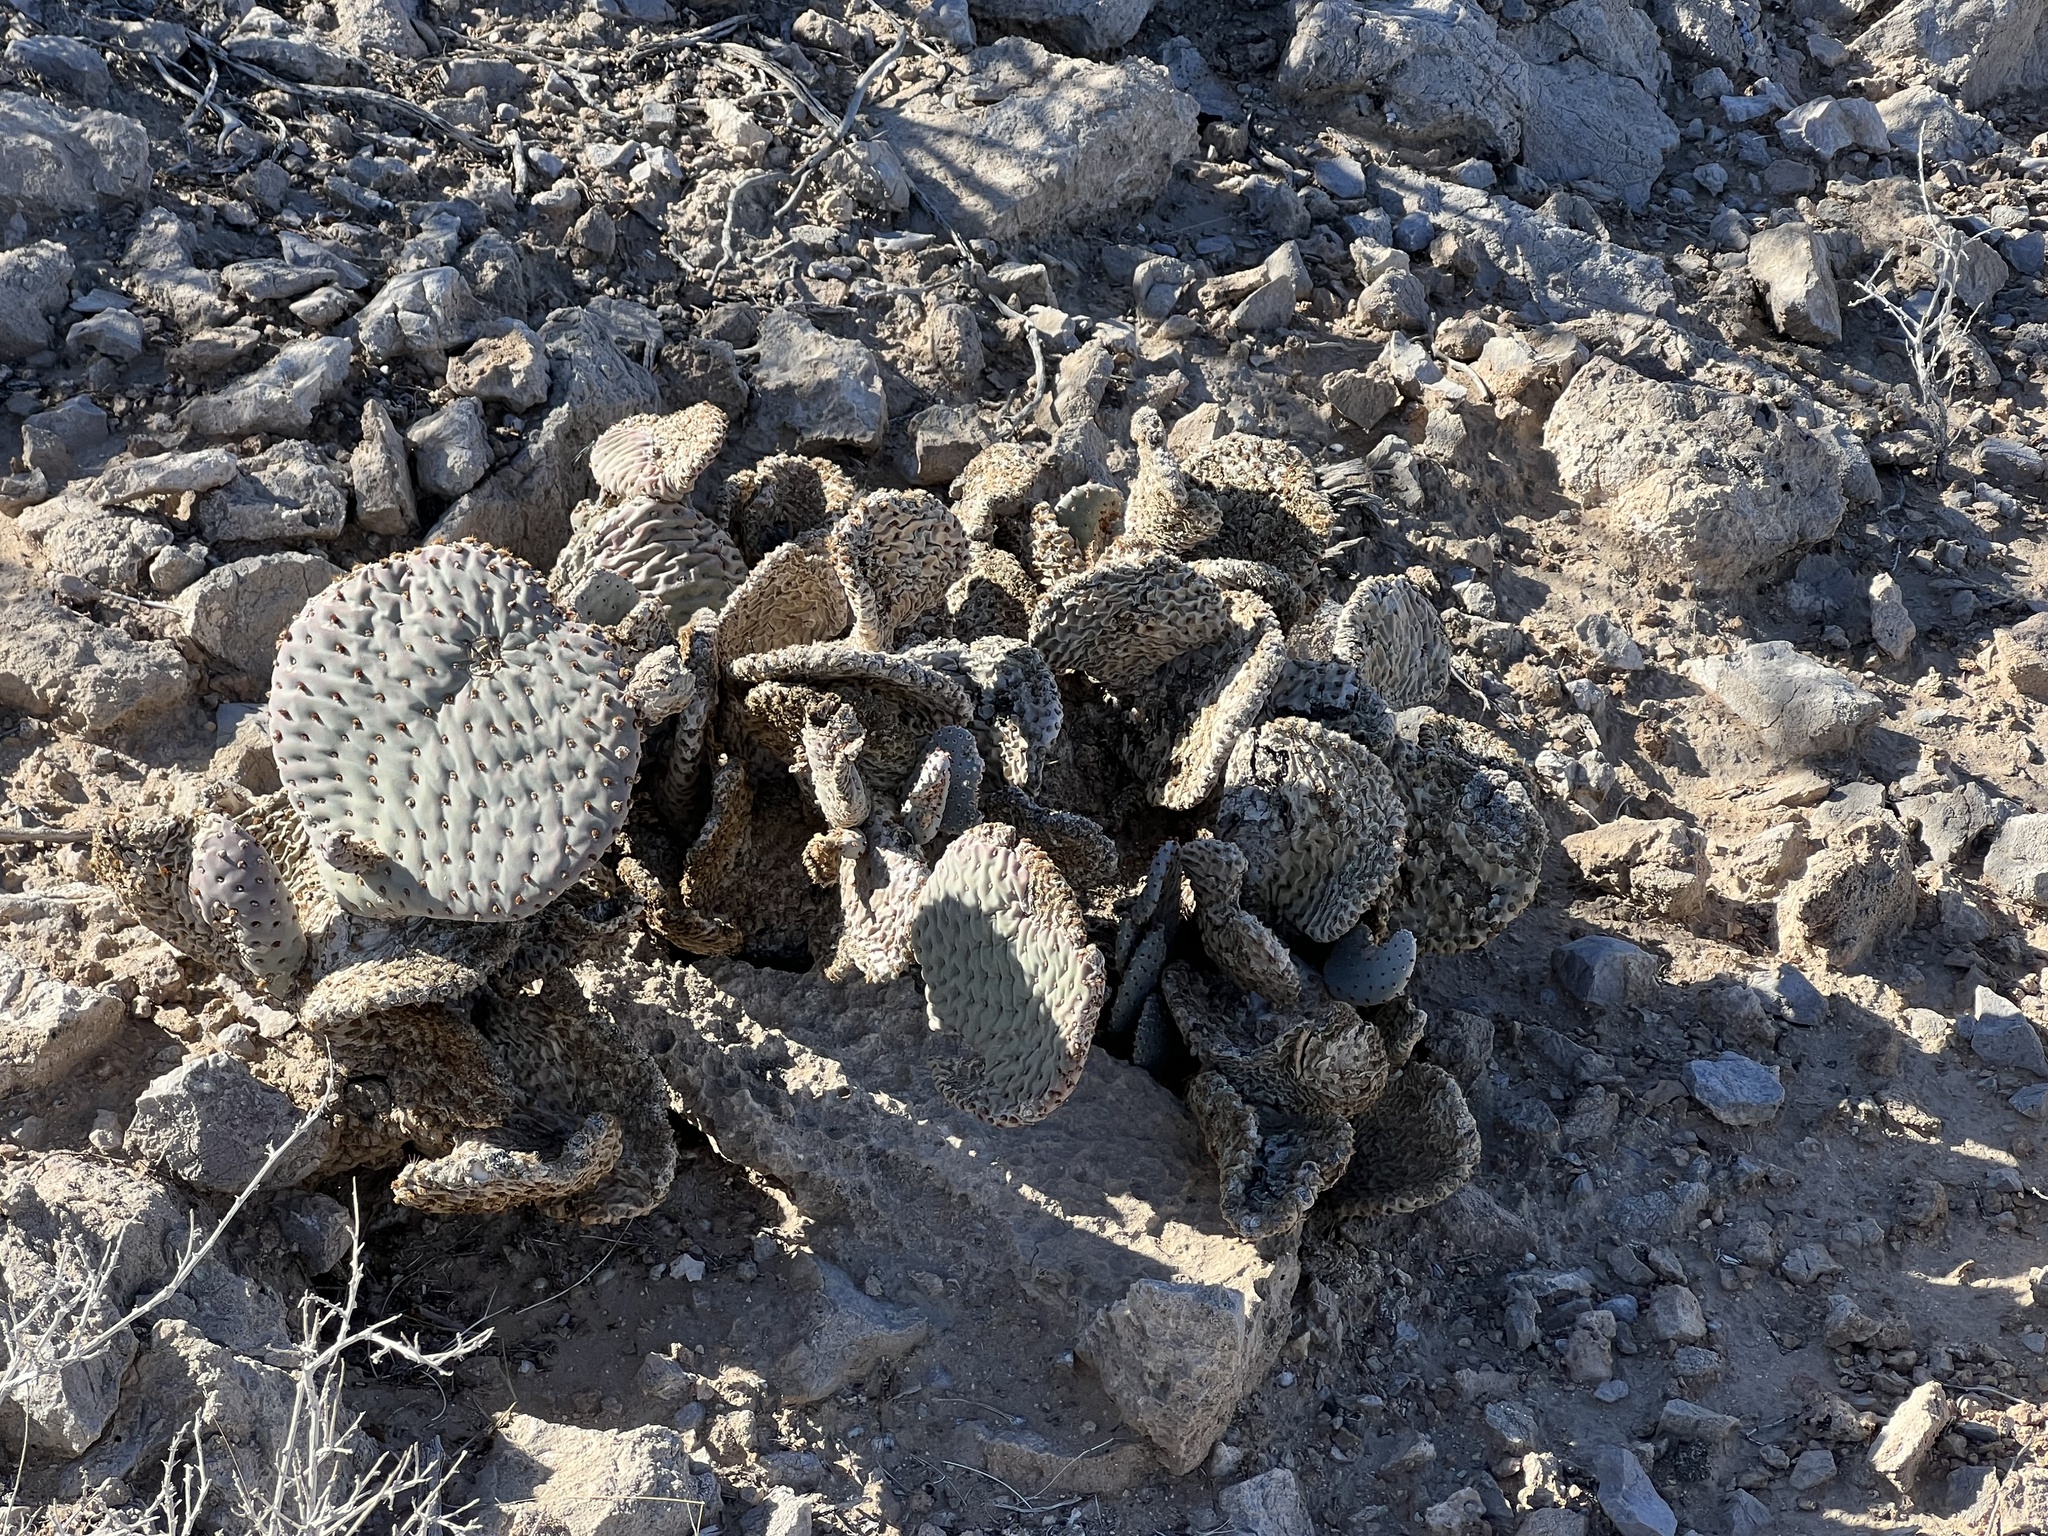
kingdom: Plantae
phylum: Tracheophyta
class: Magnoliopsida
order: Caryophyllales
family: Cactaceae
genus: Opuntia
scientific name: Opuntia basilaris
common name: Beavertail prickly-pear
